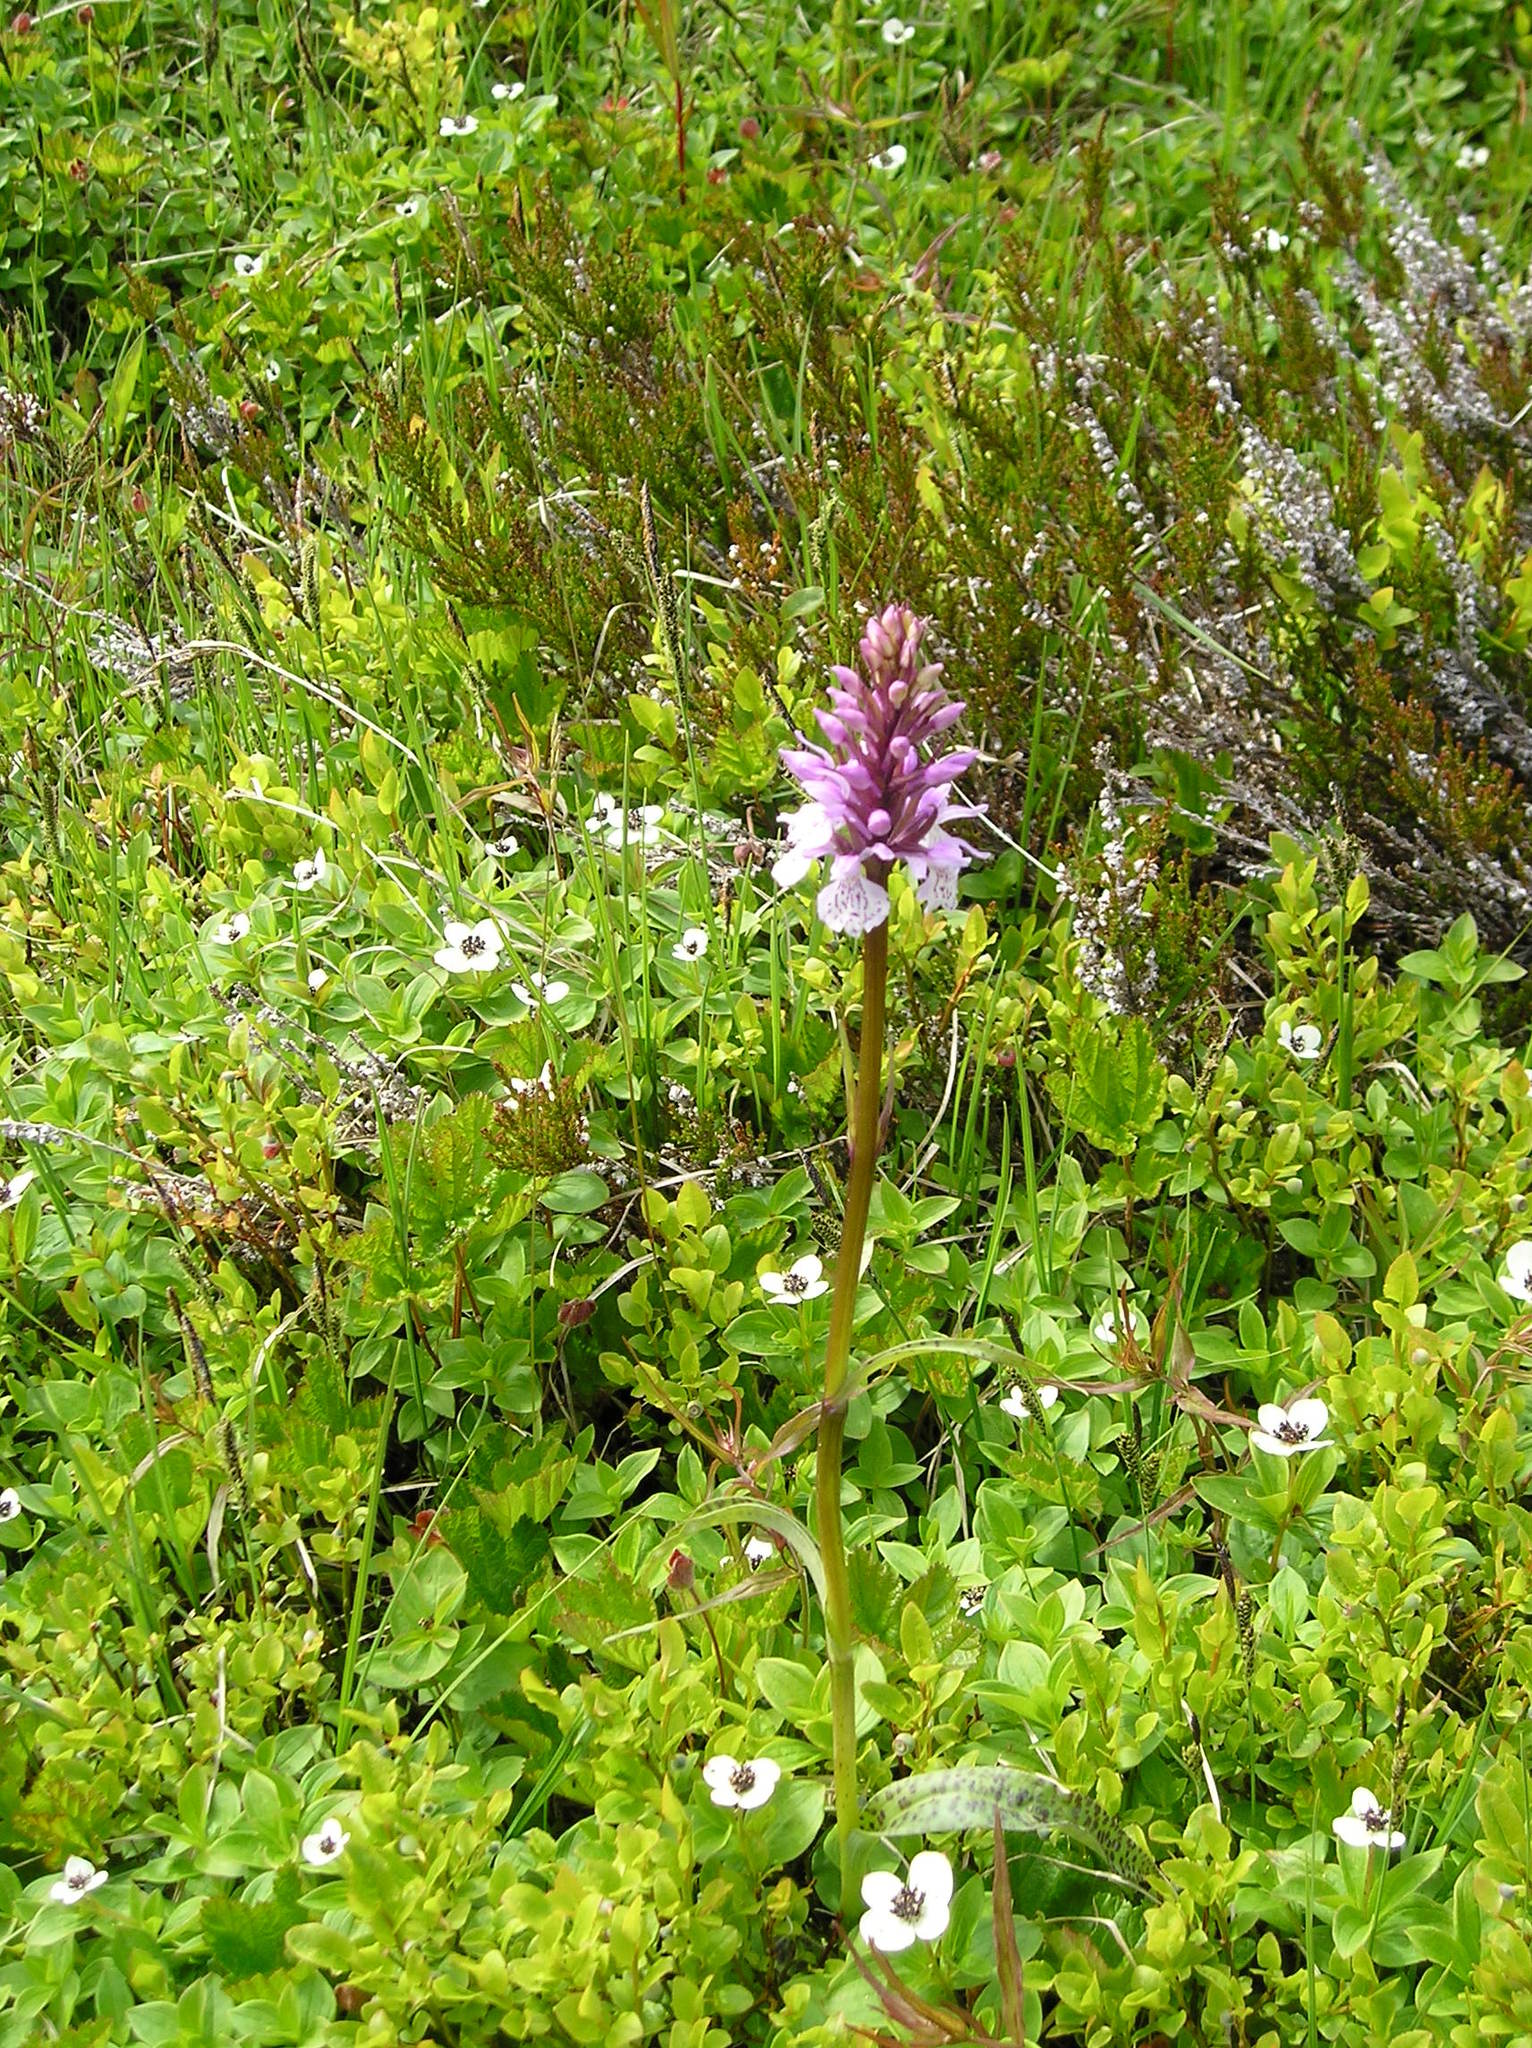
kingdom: Plantae
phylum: Tracheophyta
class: Liliopsida
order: Asparagales
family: Orchidaceae
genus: Dactylorhiza
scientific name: Dactylorhiza maculata
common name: Heath spotted-orchid
